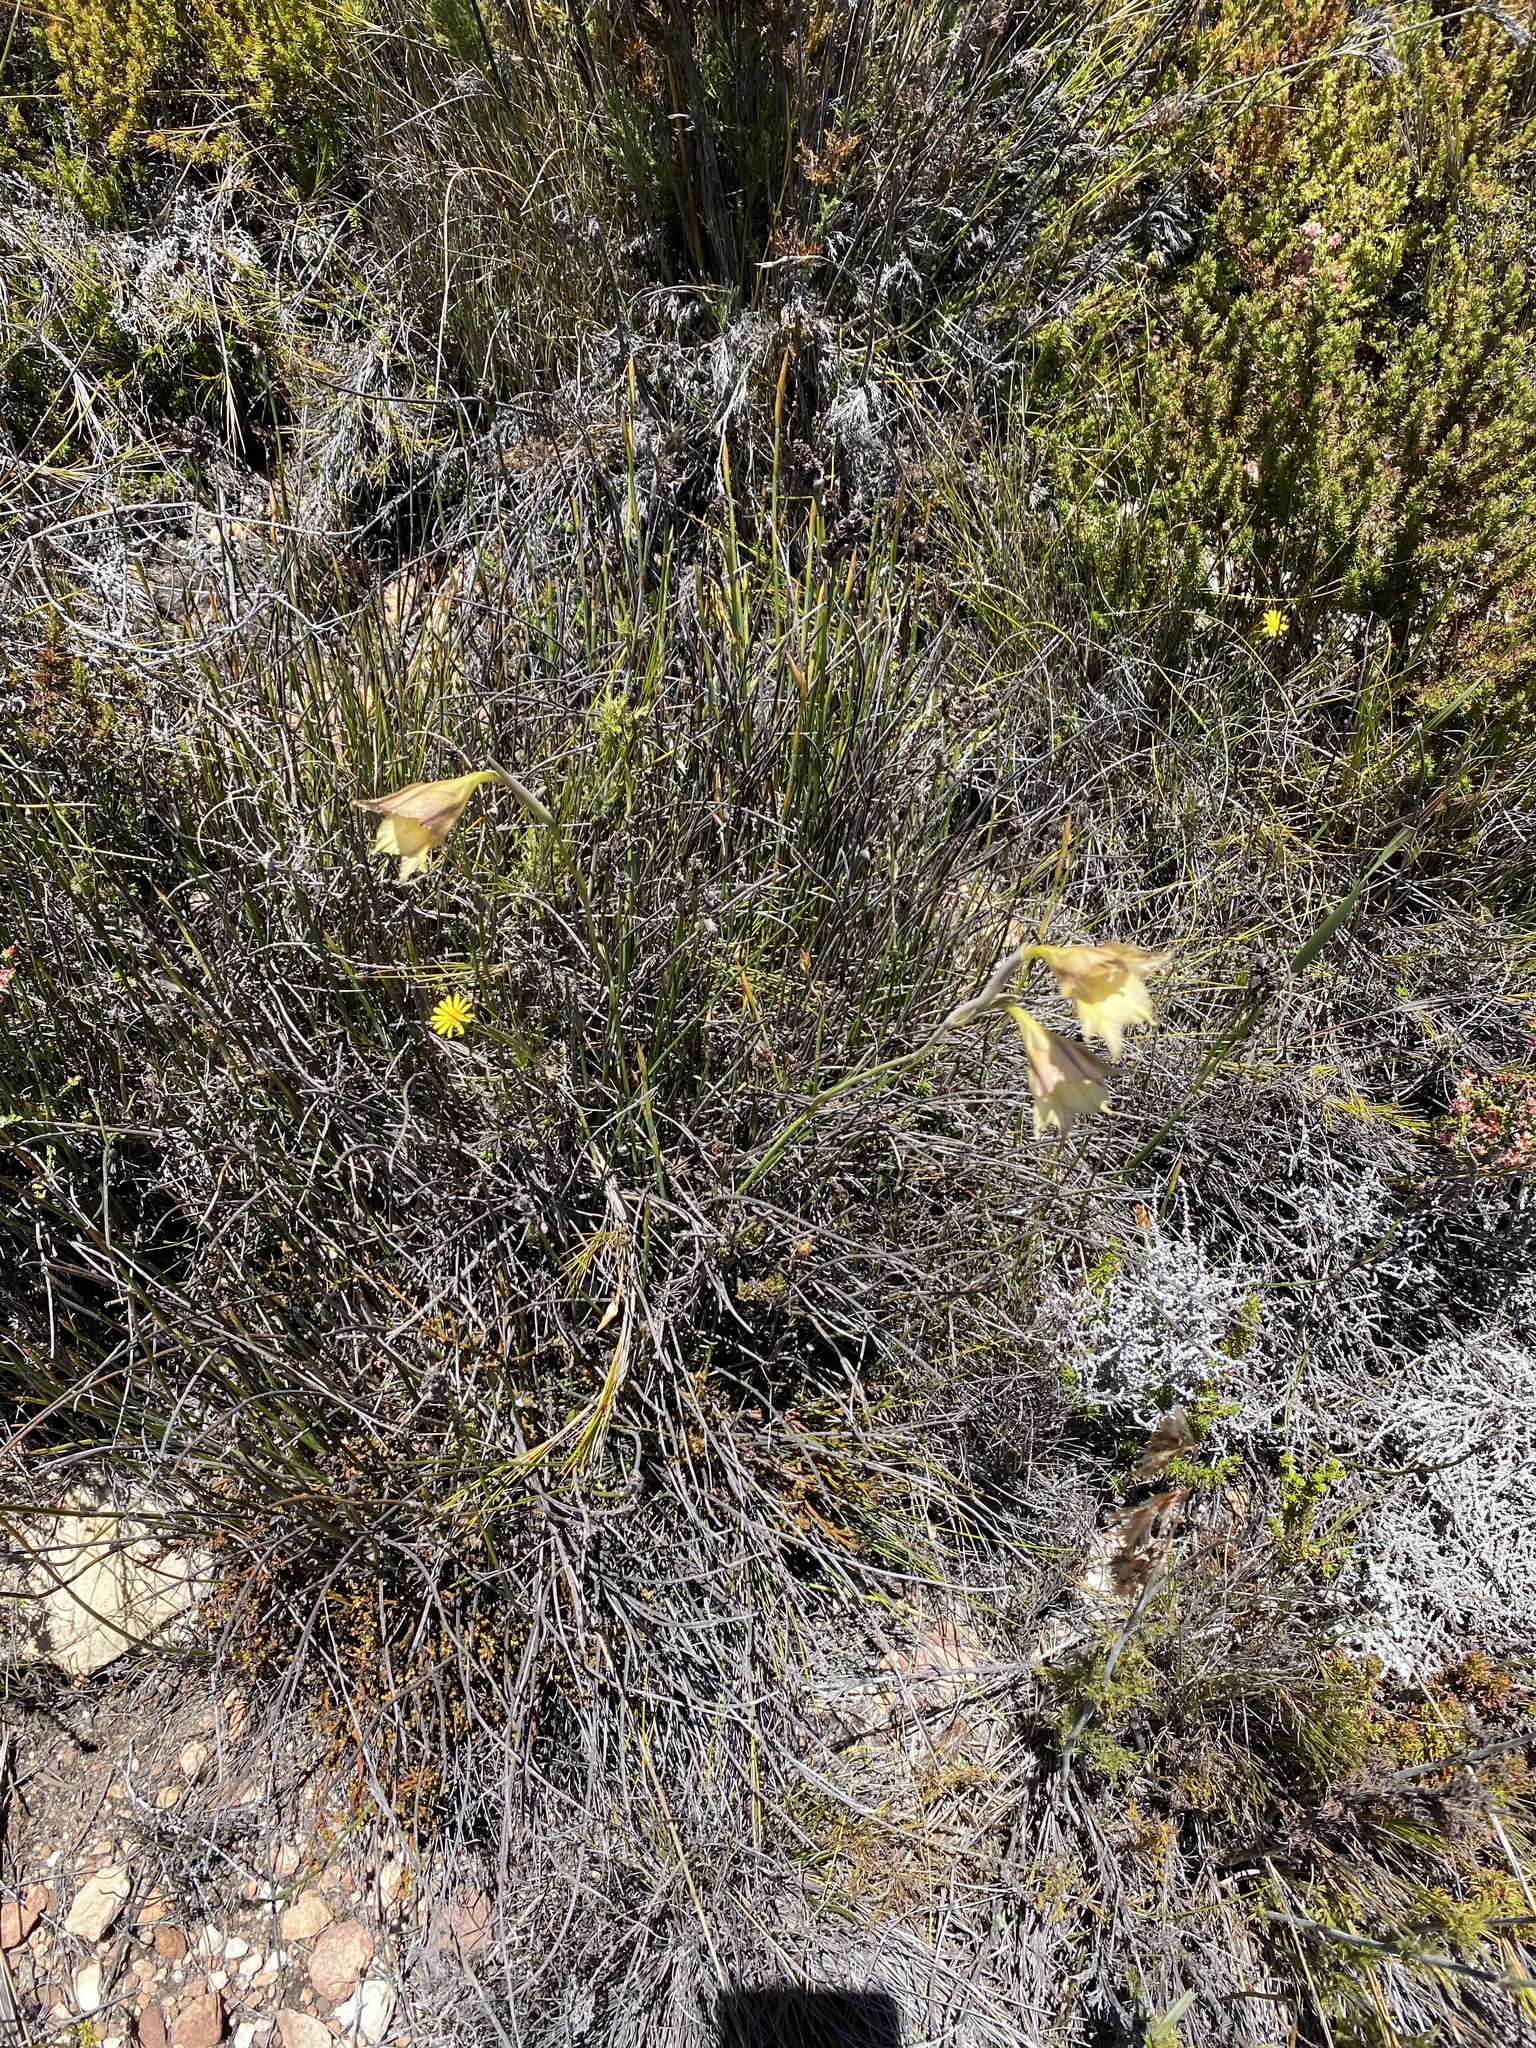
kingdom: Plantae
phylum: Tracheophyta
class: Liliopsida
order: Asparagales
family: Iridaceae
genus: Gladiolus
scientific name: Gladiolus maculatus
